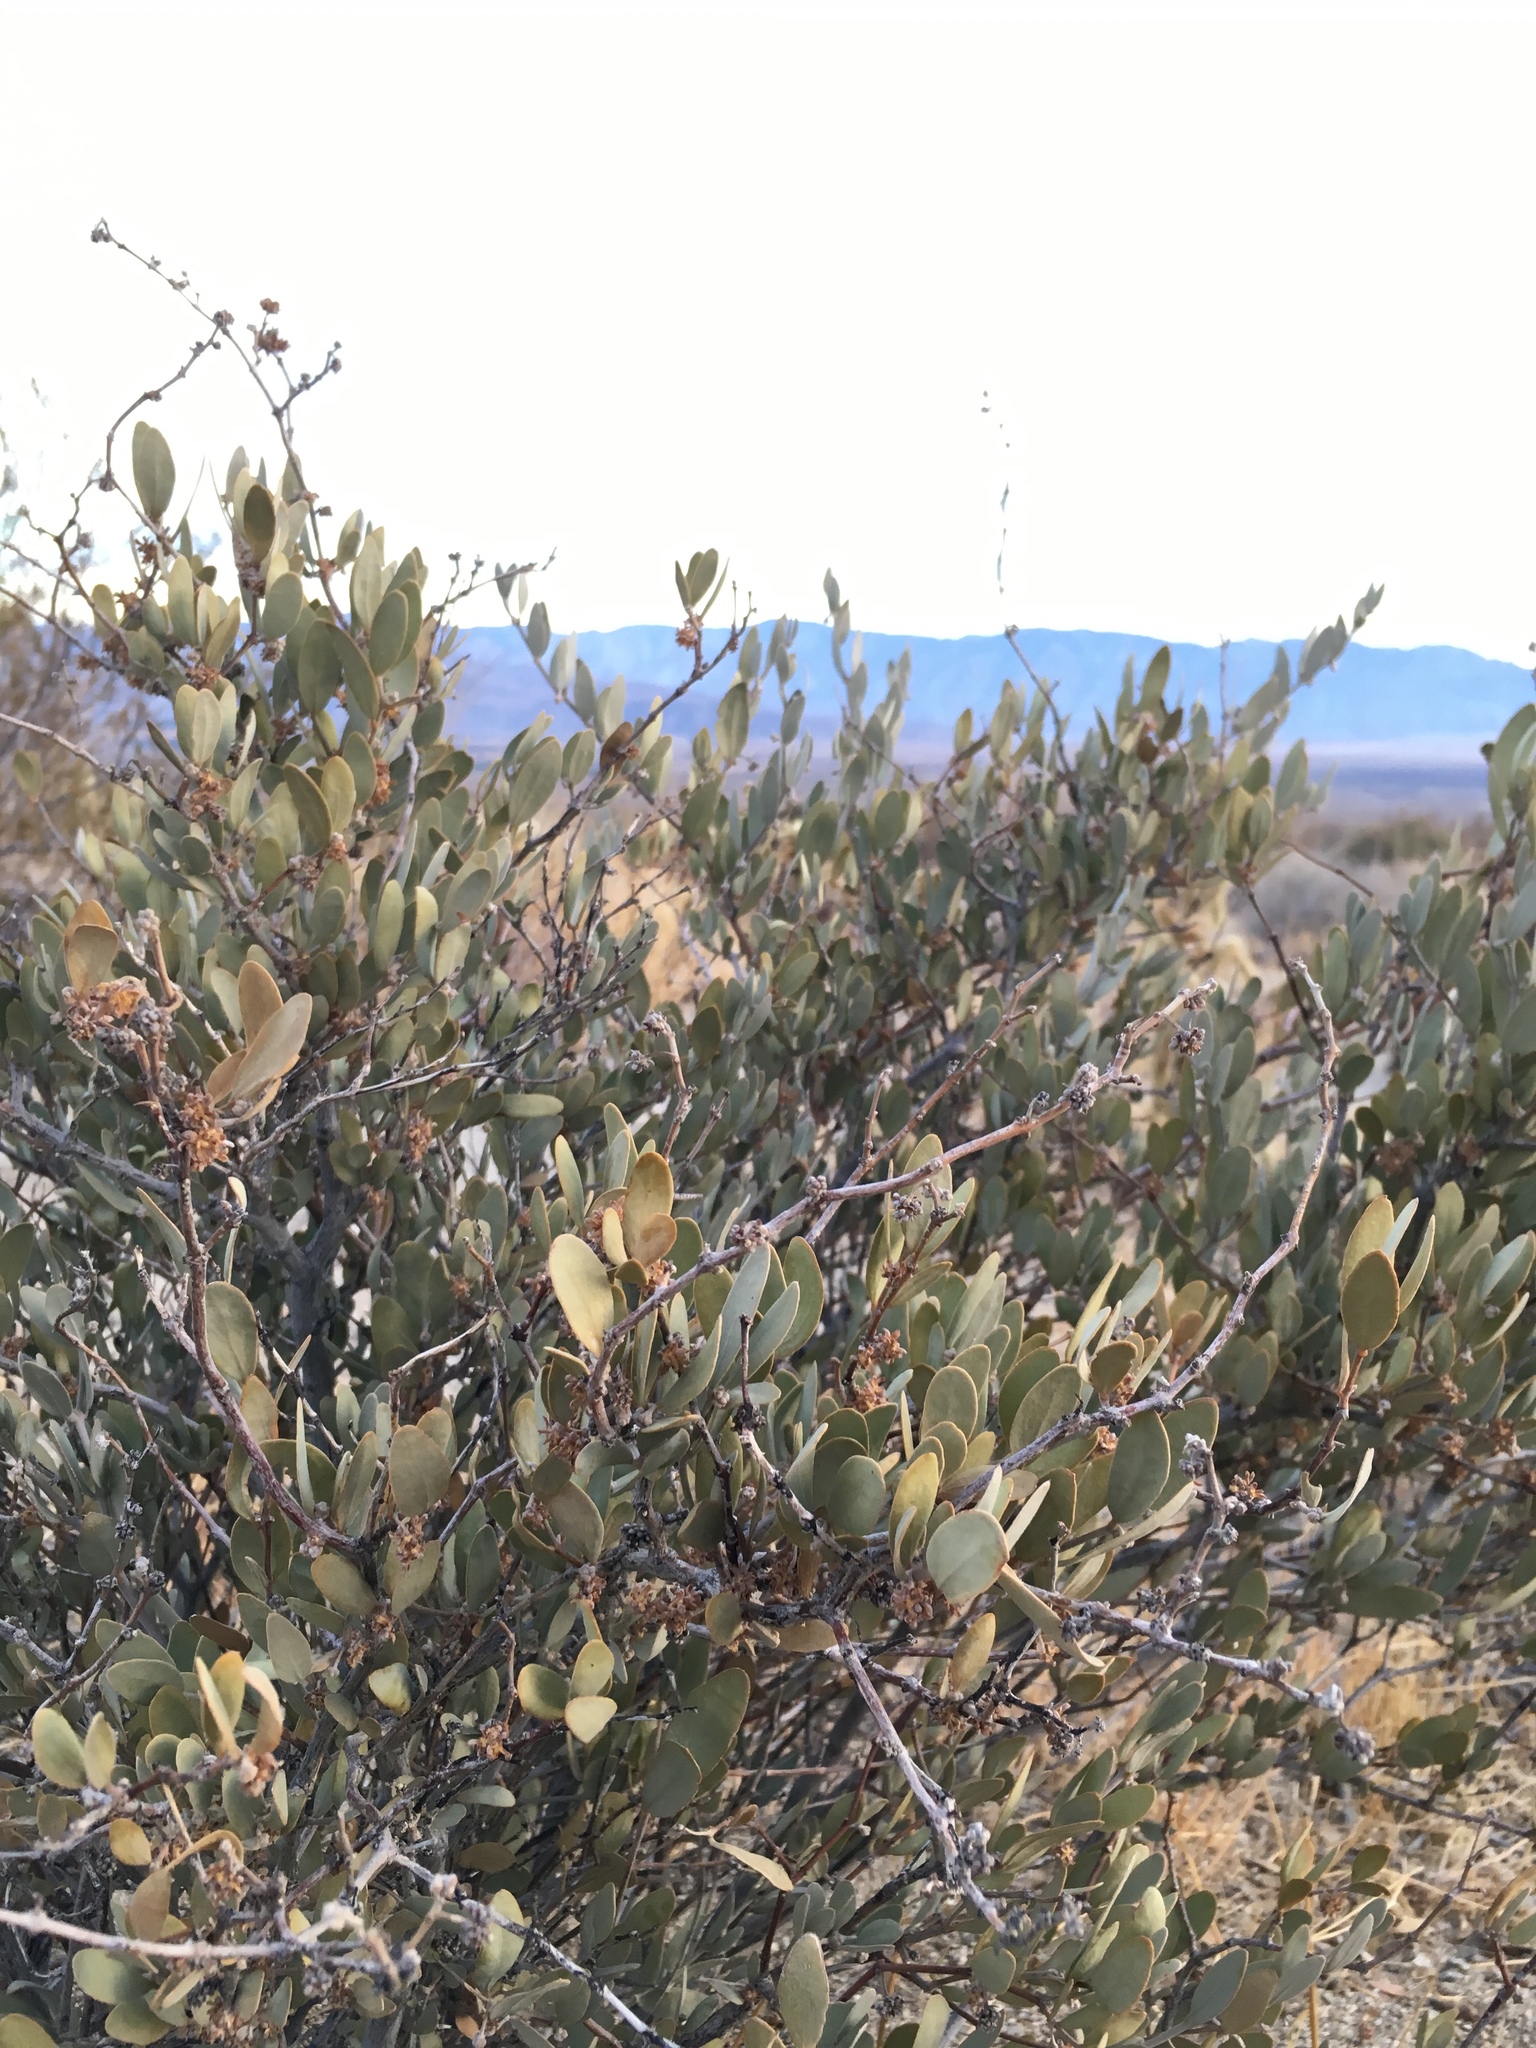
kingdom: Plantae
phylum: Tracheophyta
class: Magnoliopsida
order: Caryophyllales
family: Simmondsiaceae
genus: Simmondsia
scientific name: Simmondsia chinensis
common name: Jojoba
